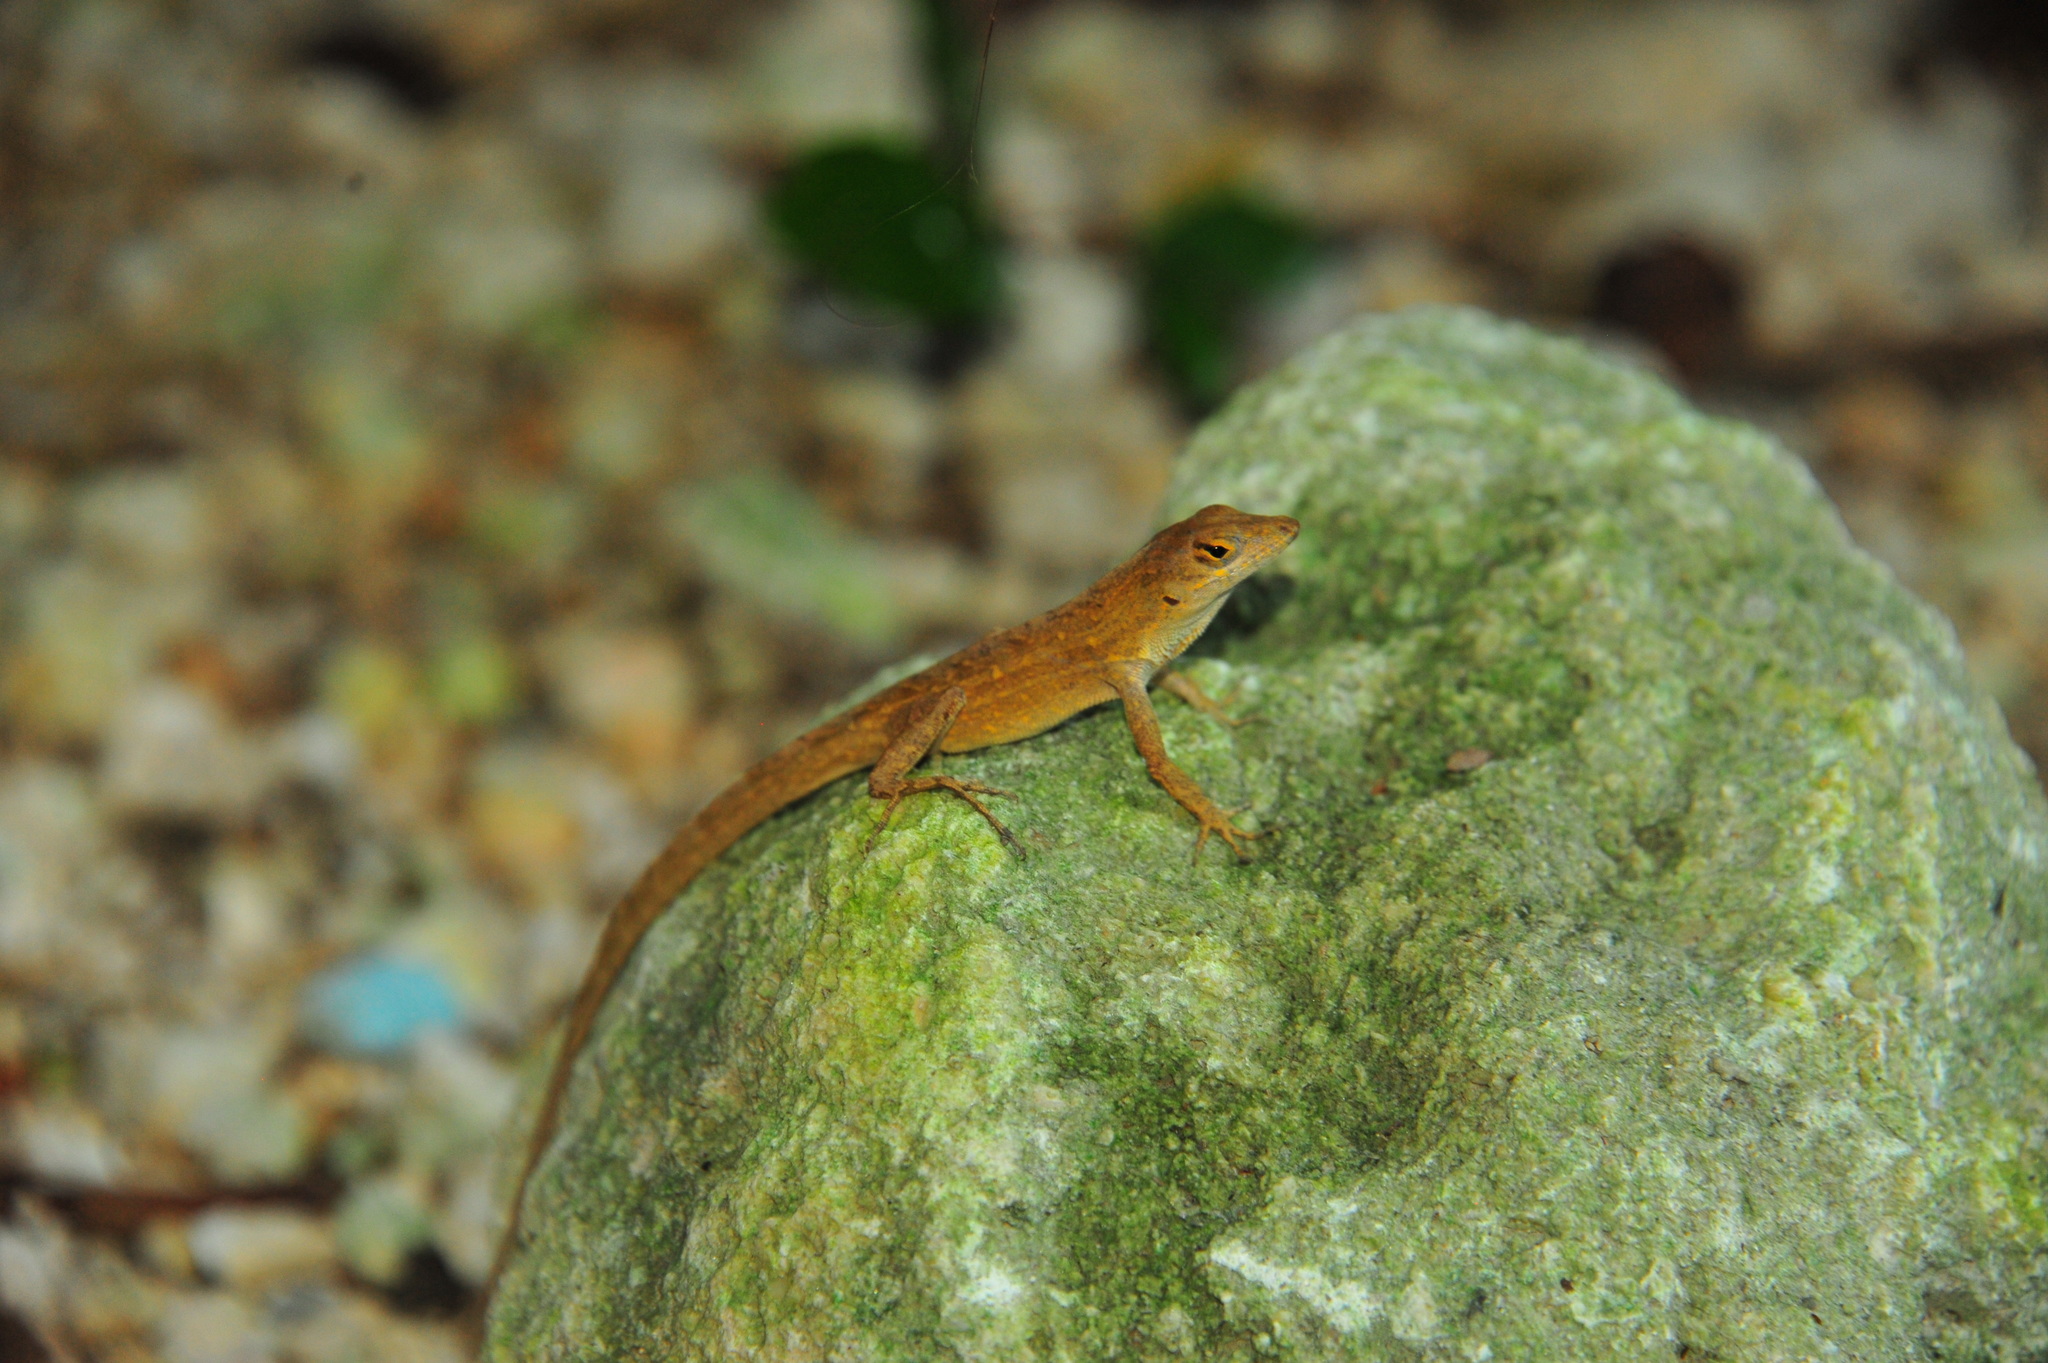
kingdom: Animalia
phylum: Chordata
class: Squamata
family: Dactyloidae
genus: Anolis
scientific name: Anolis sagrei
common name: Brown anole
